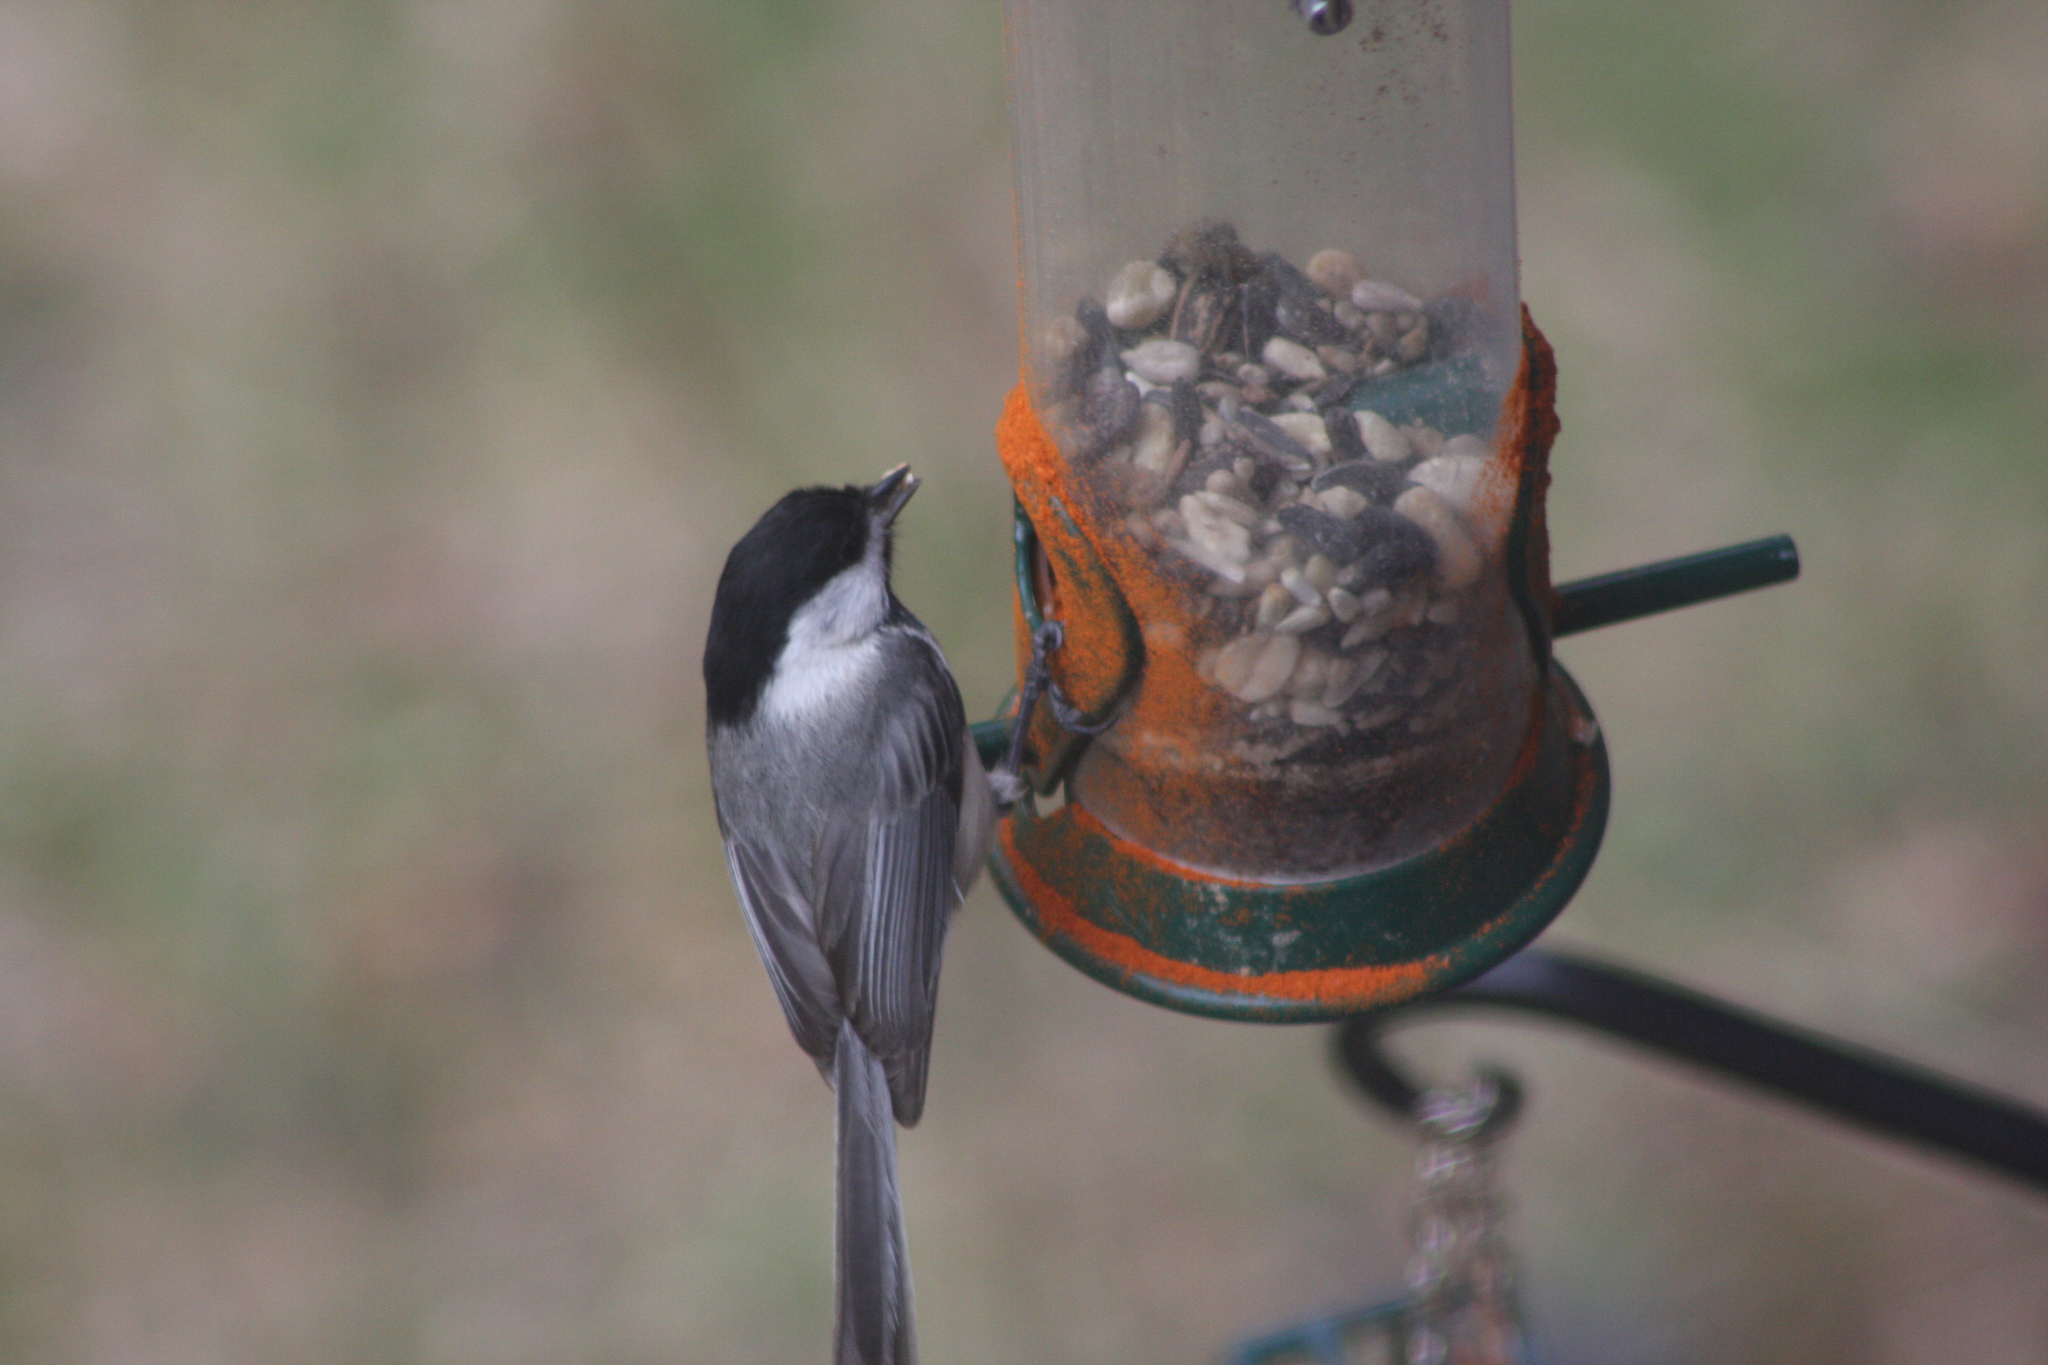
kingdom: Animalia
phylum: Chordata
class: Aves
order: Passeriformes
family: Paridae
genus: Poecile
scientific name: Poecile atricapillus
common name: Black-capped chickadee
